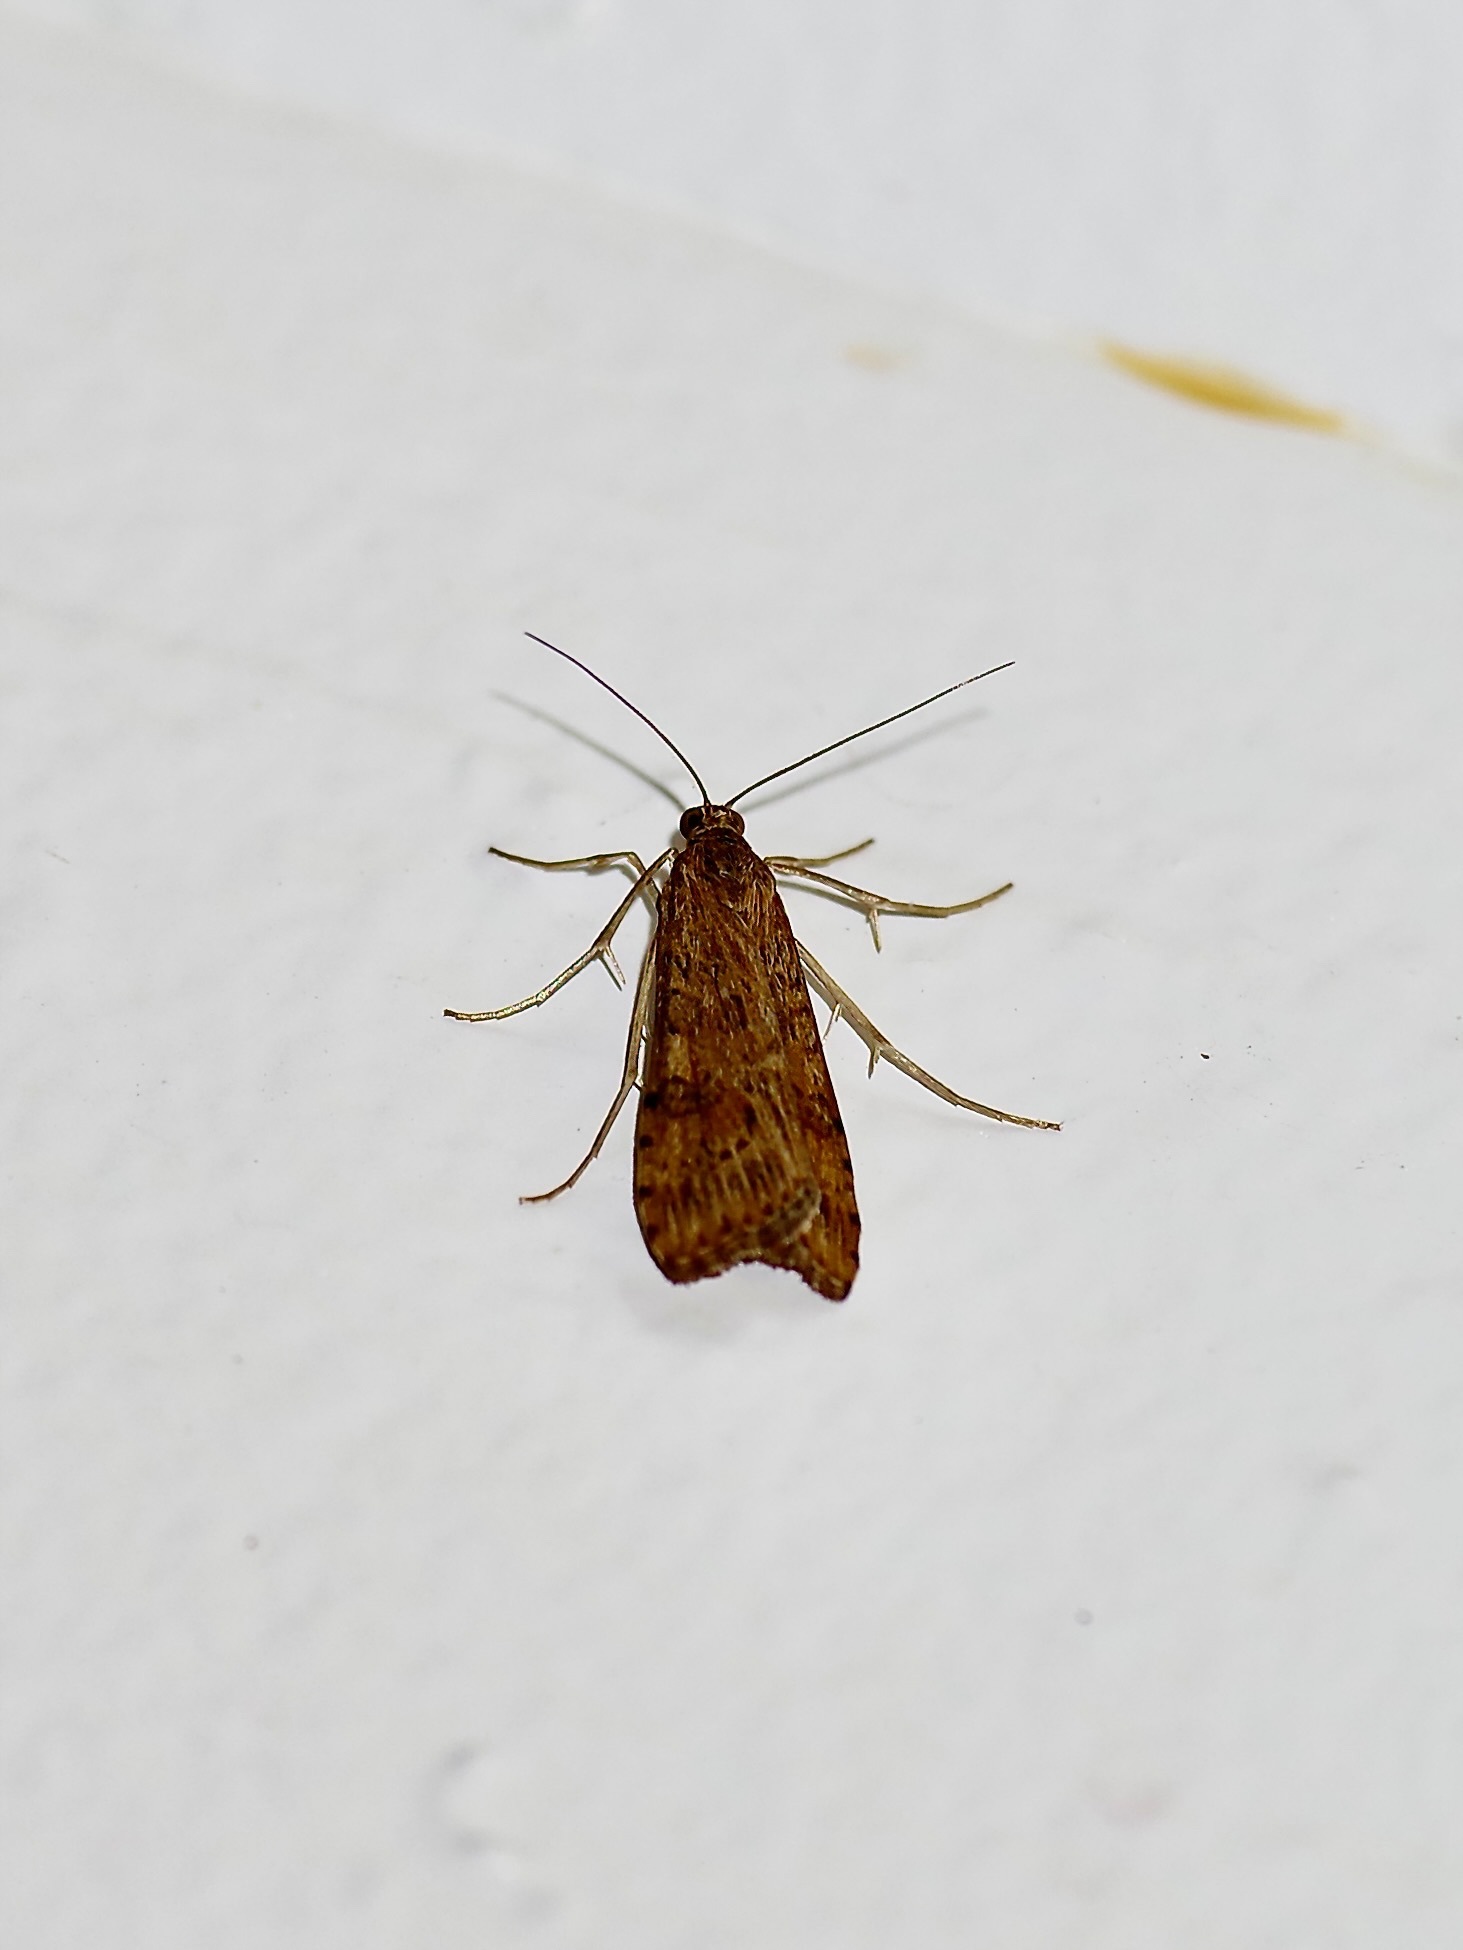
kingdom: Animalia
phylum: Arthropoda
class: Insecta
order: Lepidoptera
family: Crambidae
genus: Nomophila
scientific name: Nomophila nearctica
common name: American rush veneer
